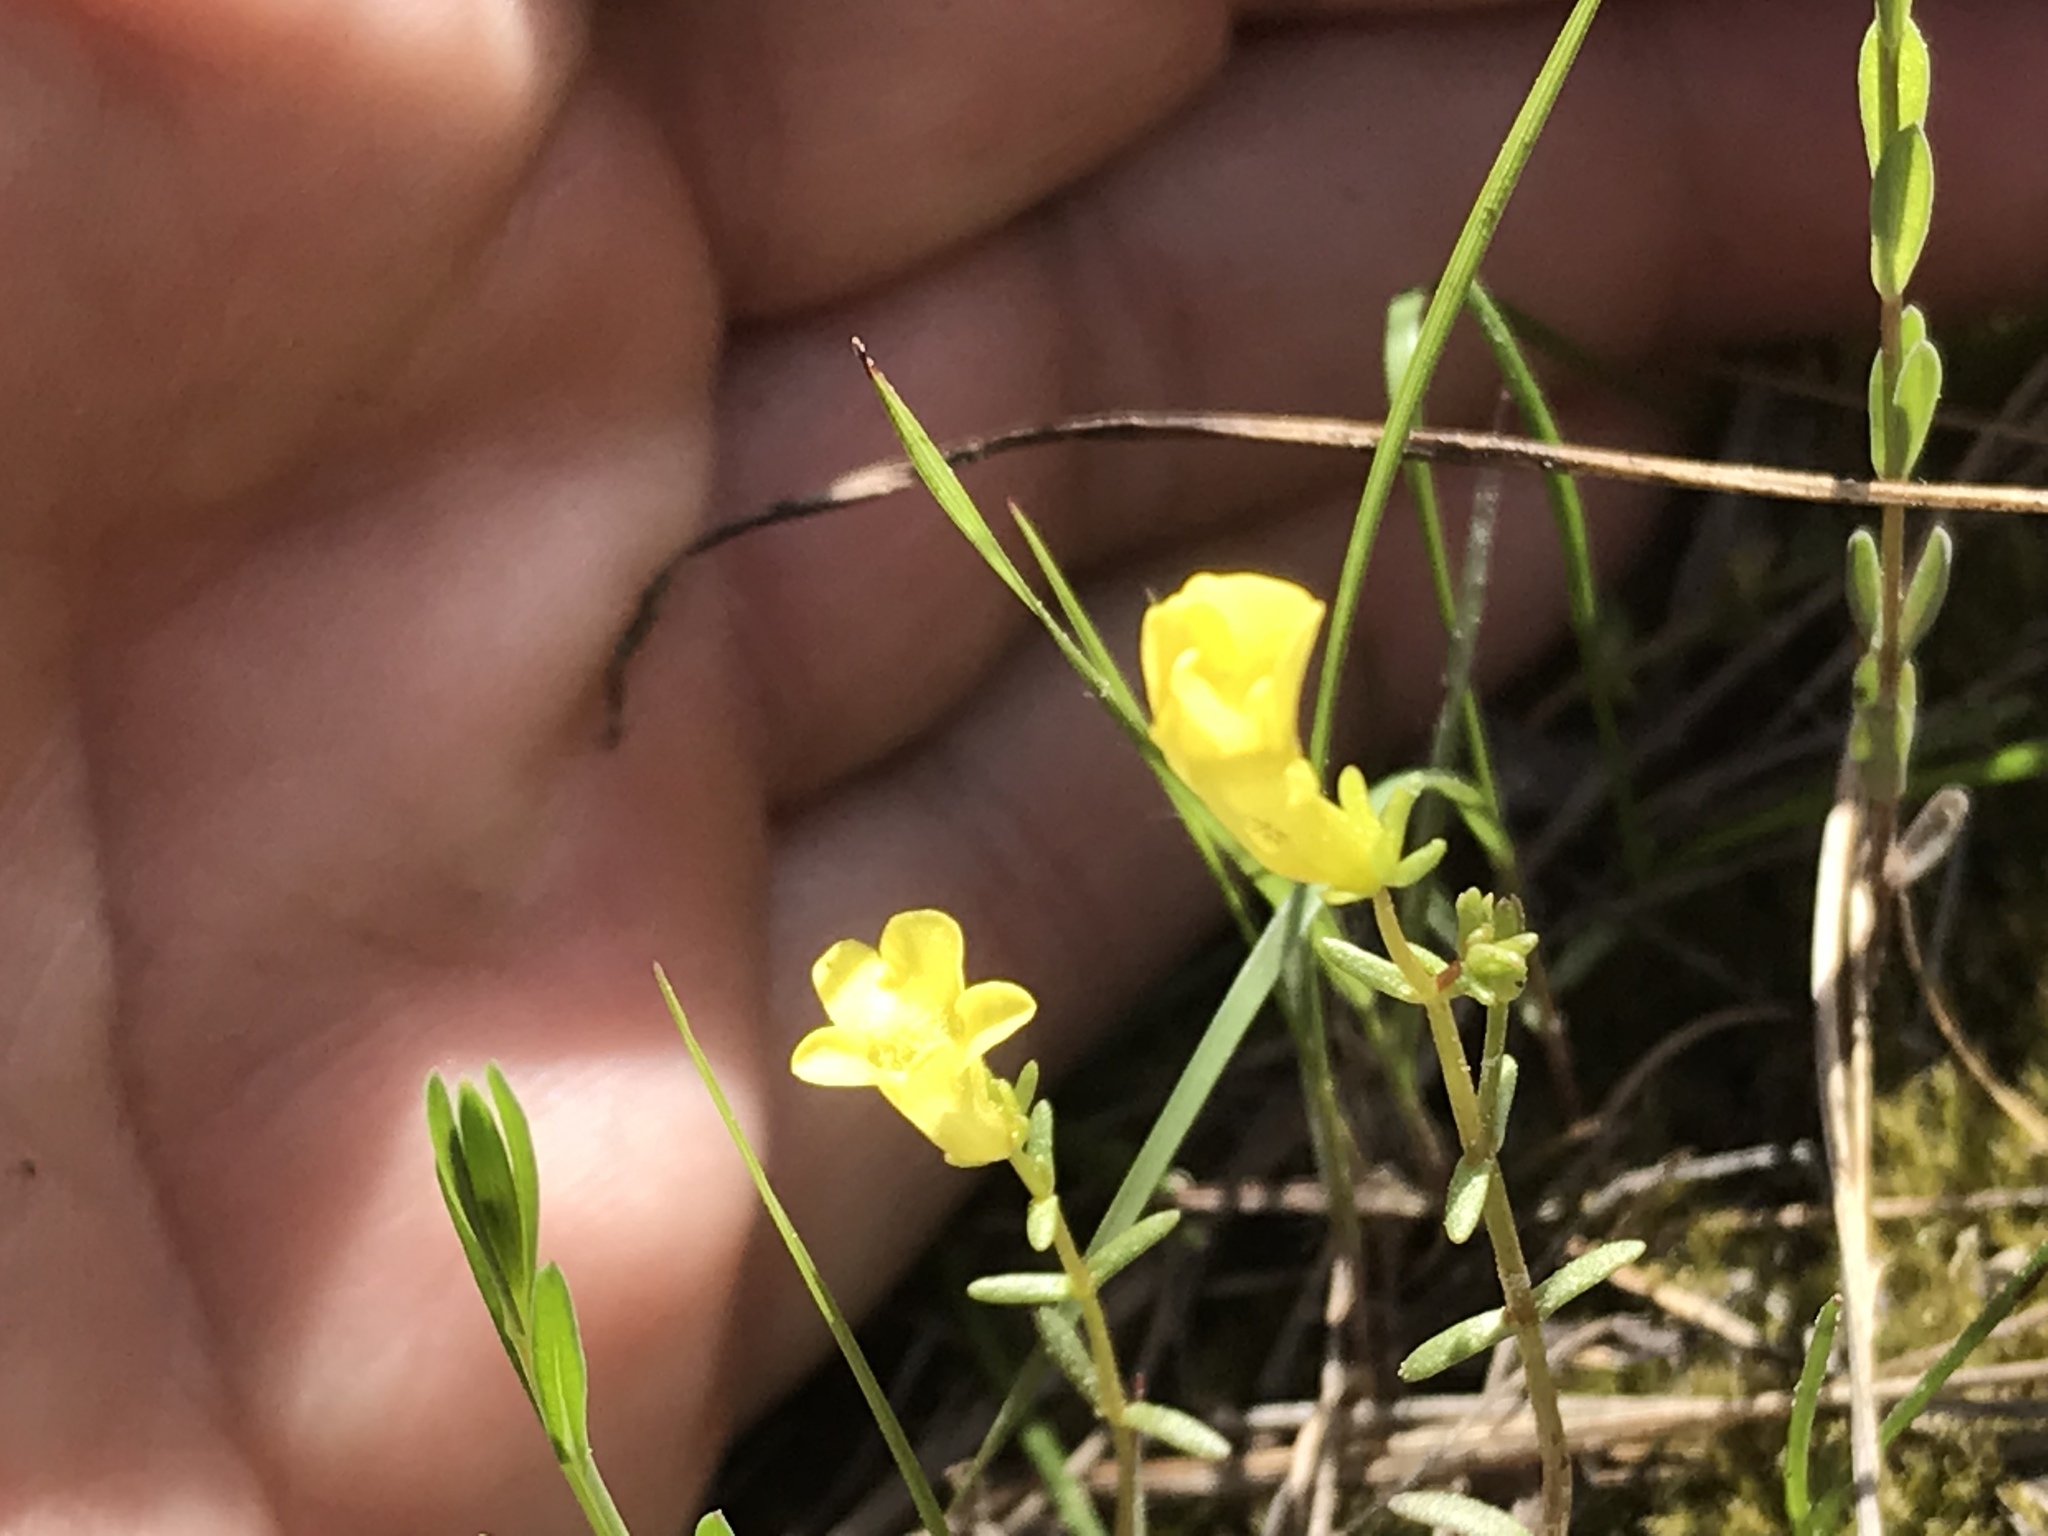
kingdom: Plantae
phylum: Tracheophyta
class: Magnoliopsida
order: Lamiales
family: Plantaginaceae
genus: Gratiola
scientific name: Gratiola flava
